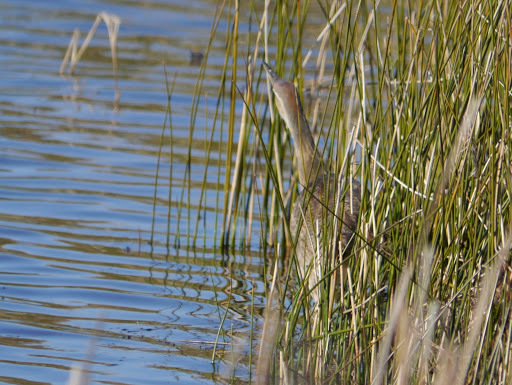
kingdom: Animalia
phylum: Chordata
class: Aves
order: Pelecaniformes
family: Ardeidae
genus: Botaurus
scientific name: Botaurus lentiginosus
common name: American bittern
